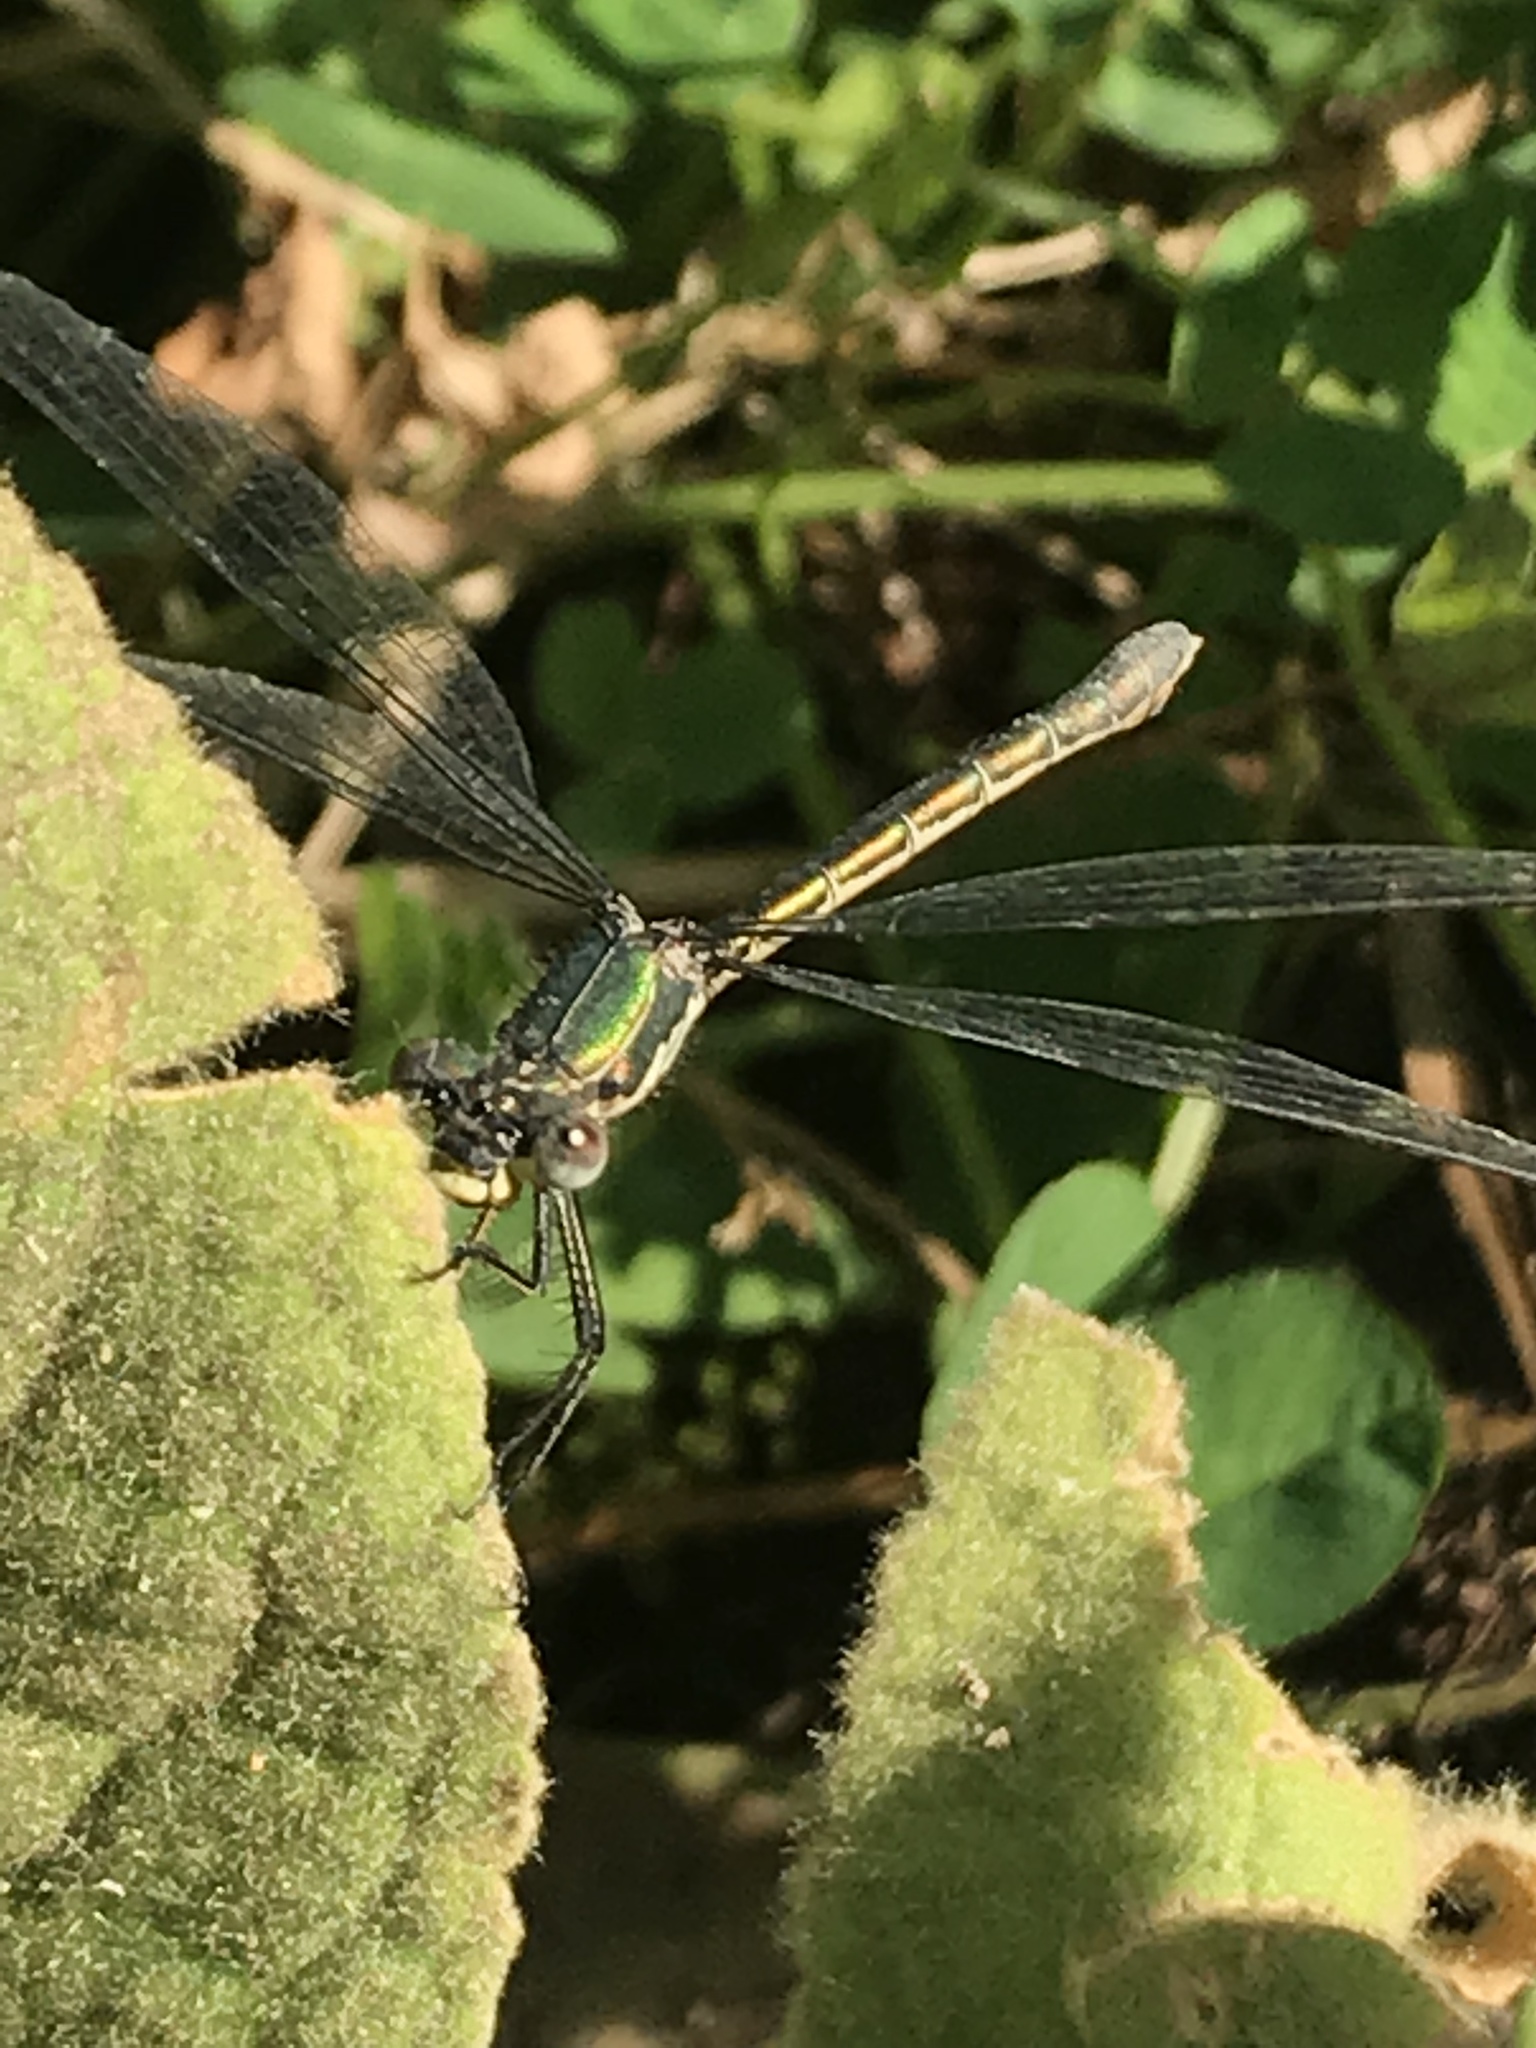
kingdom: Animalia
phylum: Arthropoda
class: Insecta
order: Odonata
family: Lestidae
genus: Lestes
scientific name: Lestes dryas
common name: Scarce emerald damselfly
